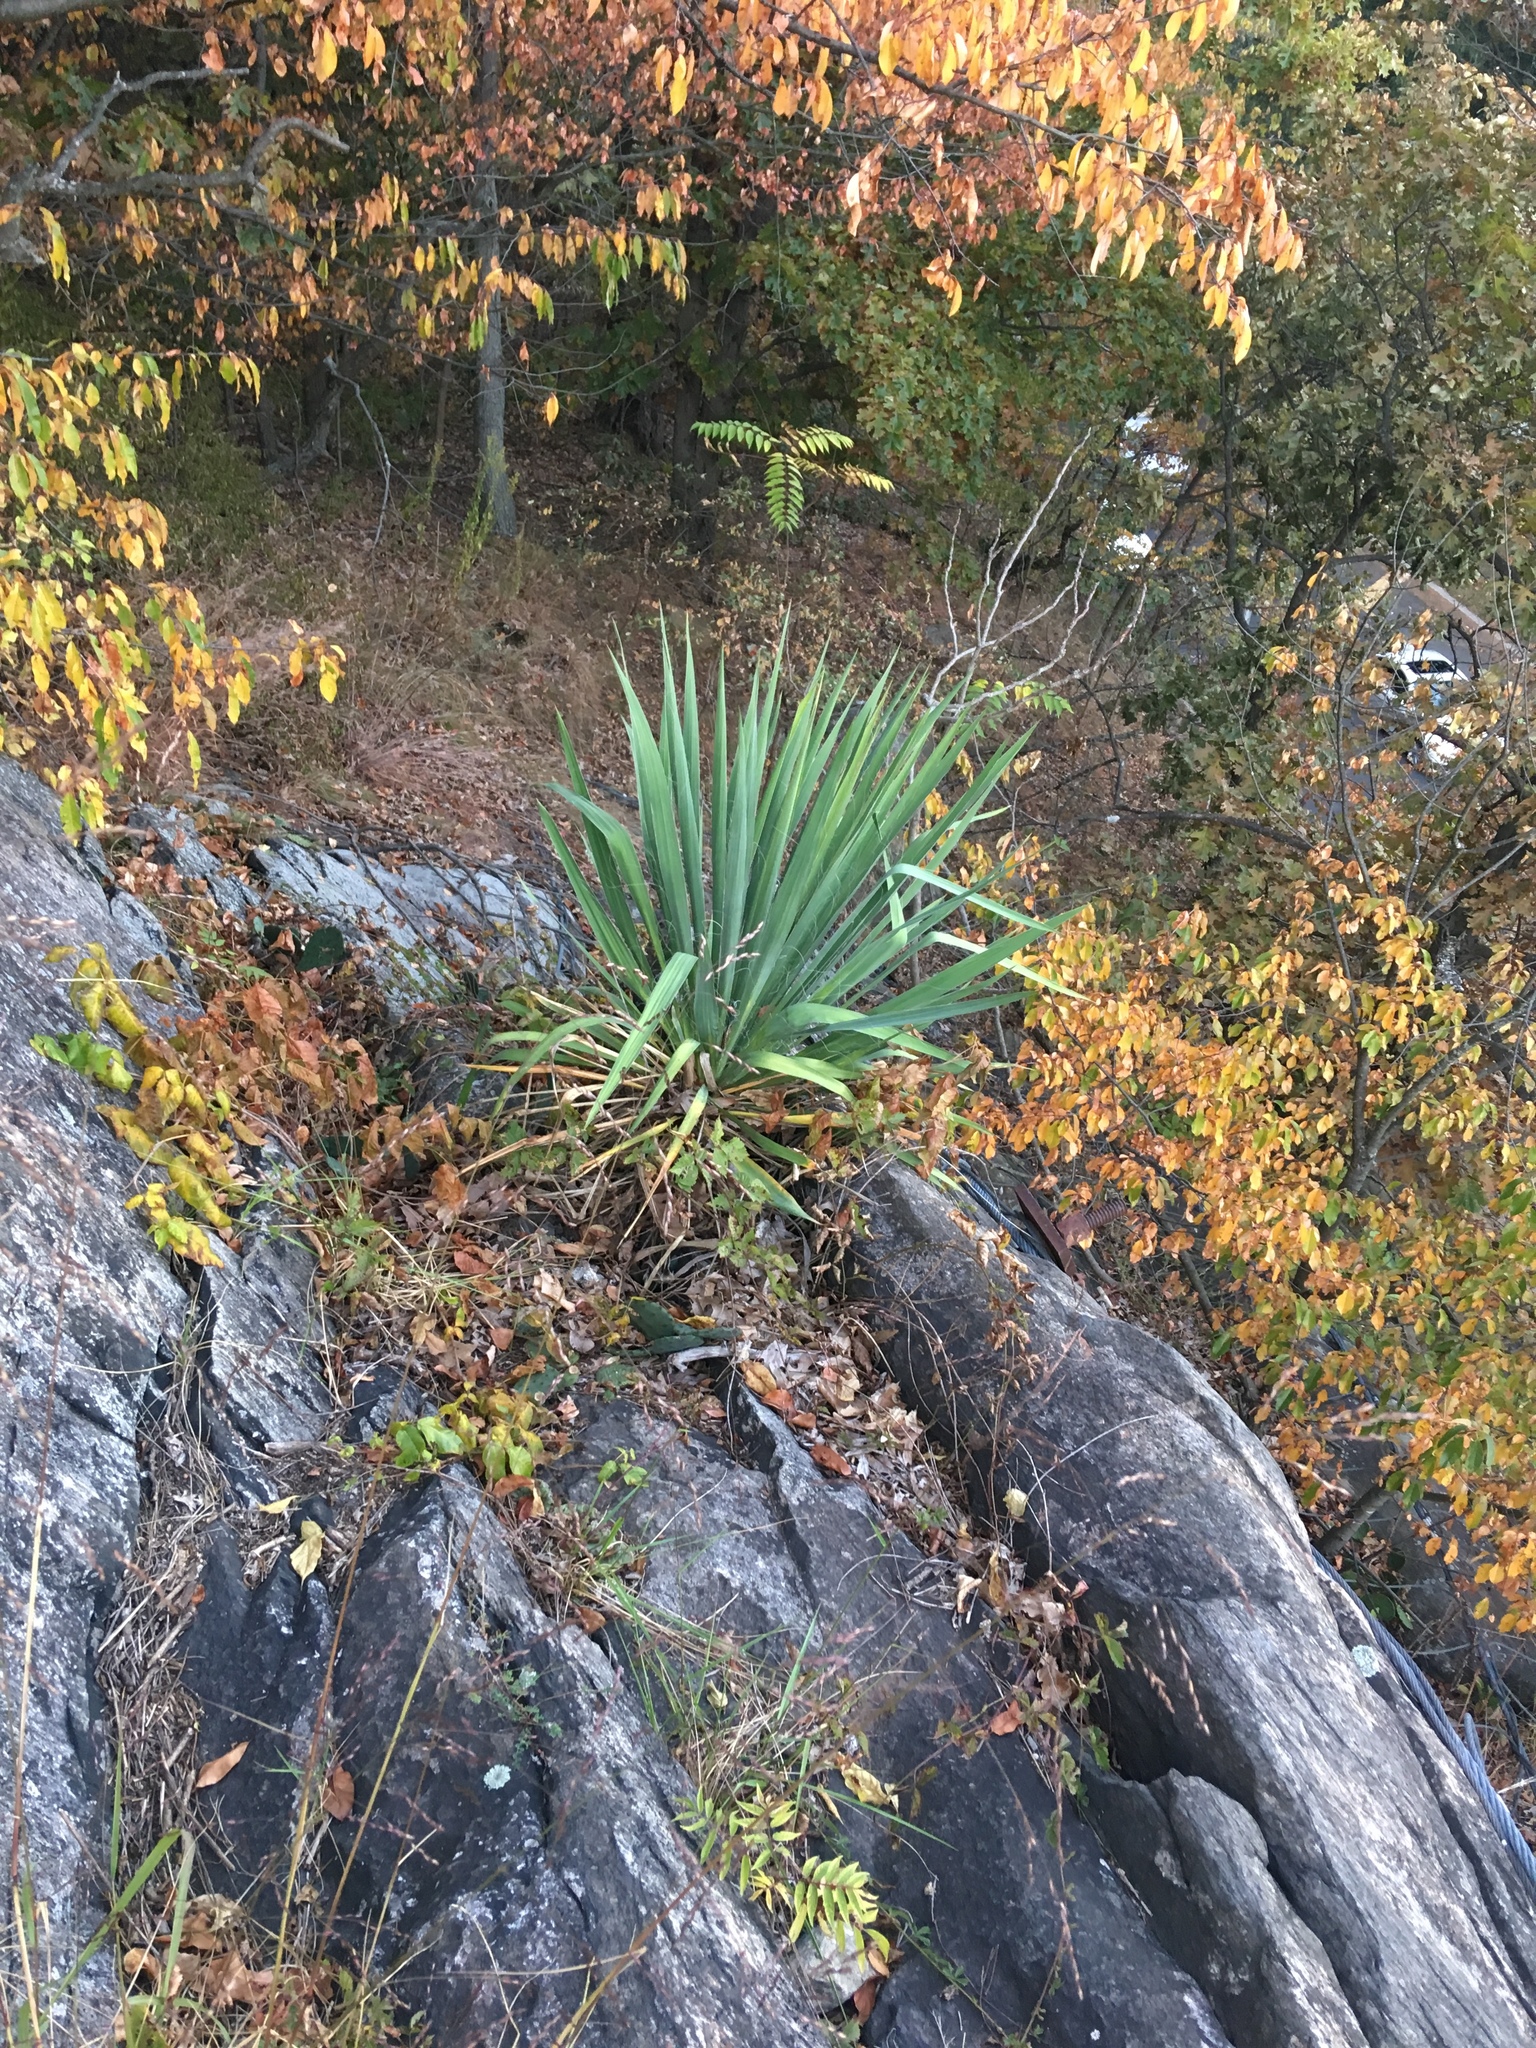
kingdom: Plantae
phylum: Tracheophyta
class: Liliopsida
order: Asparagales
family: Asparagaceae
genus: Yucca
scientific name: Yucca filamentosa
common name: Adam's-needle
